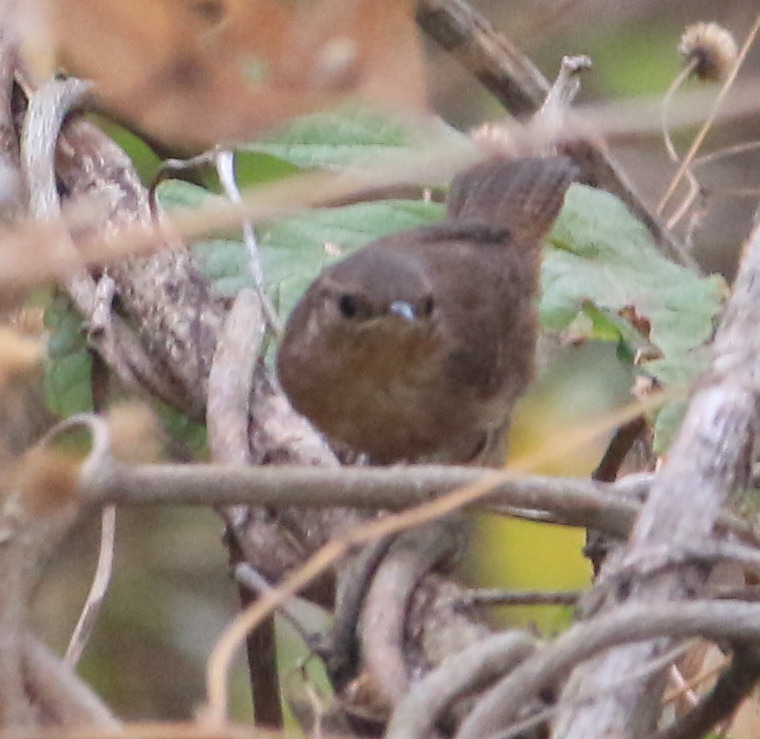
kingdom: Animalia
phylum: Chordata
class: Aves
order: Passeriformes
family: Troglodytidae
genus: Troglodytes
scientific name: Troglodytes aedon
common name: House wren
